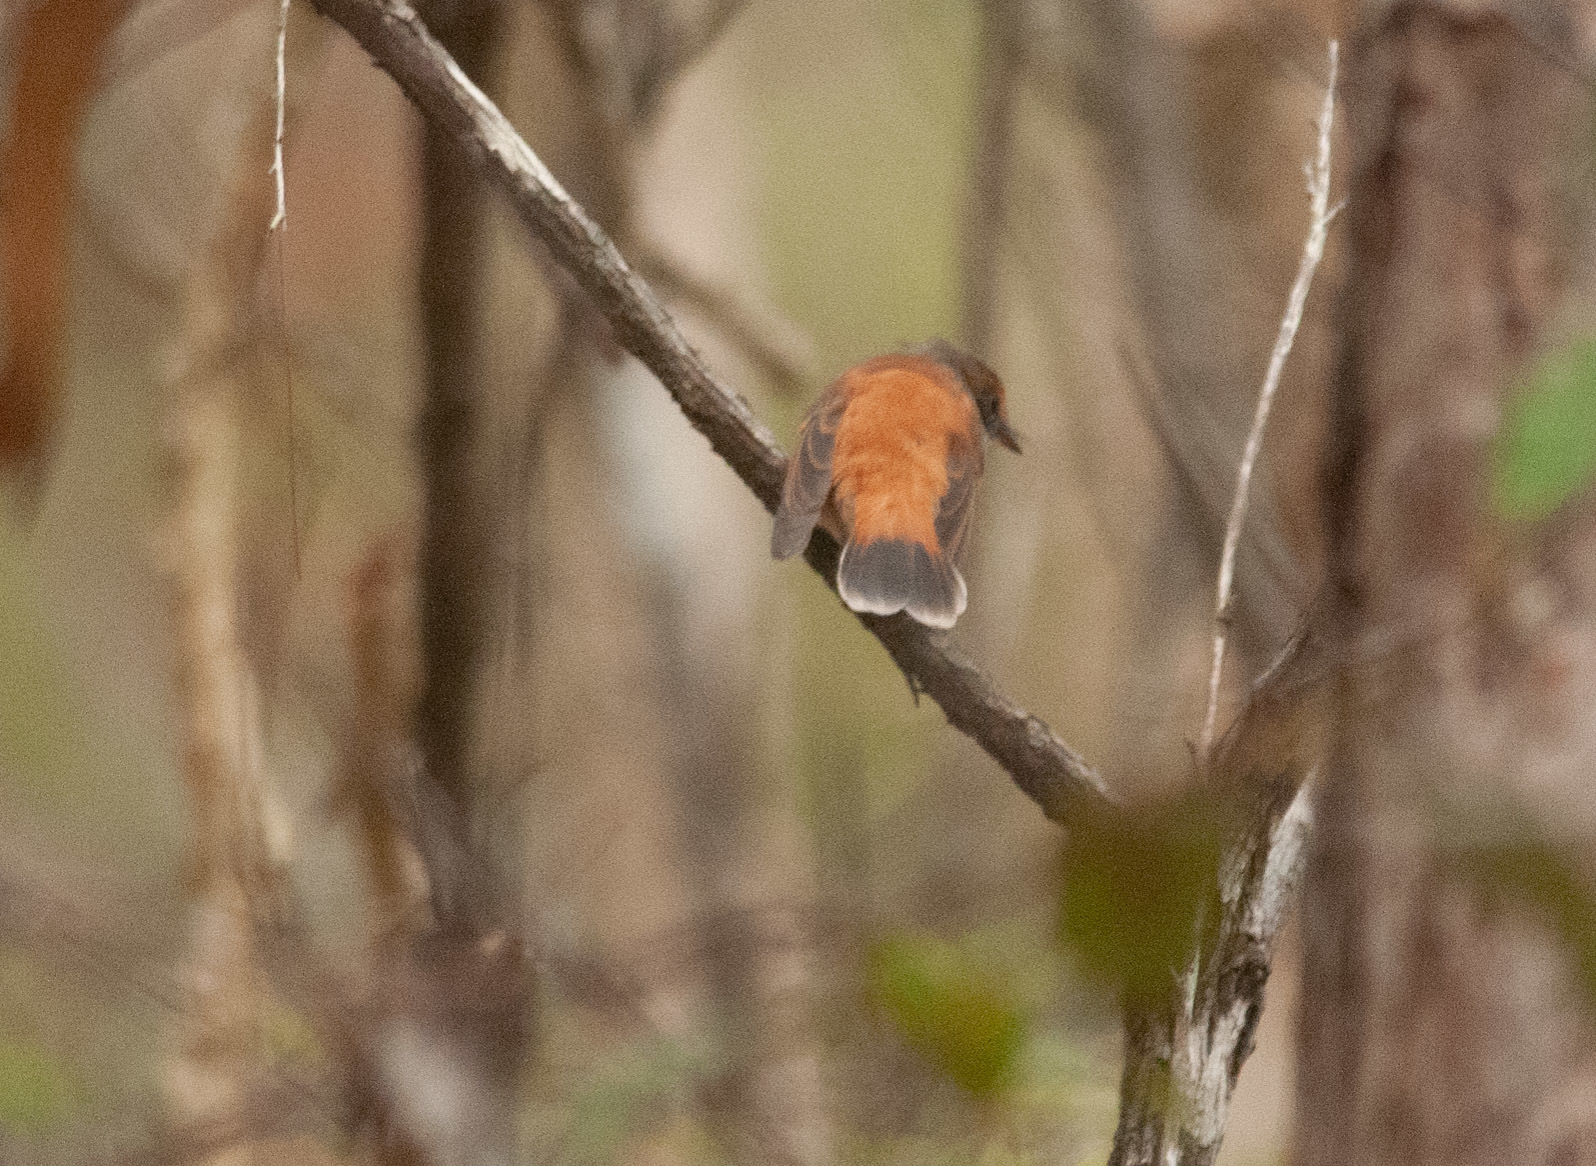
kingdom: Animalia
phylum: Chordata
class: Aves
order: Passeriformes
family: Rhipiduridae
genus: Rhipidura
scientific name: Rhipidura rufifrons
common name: Rufous fantail
